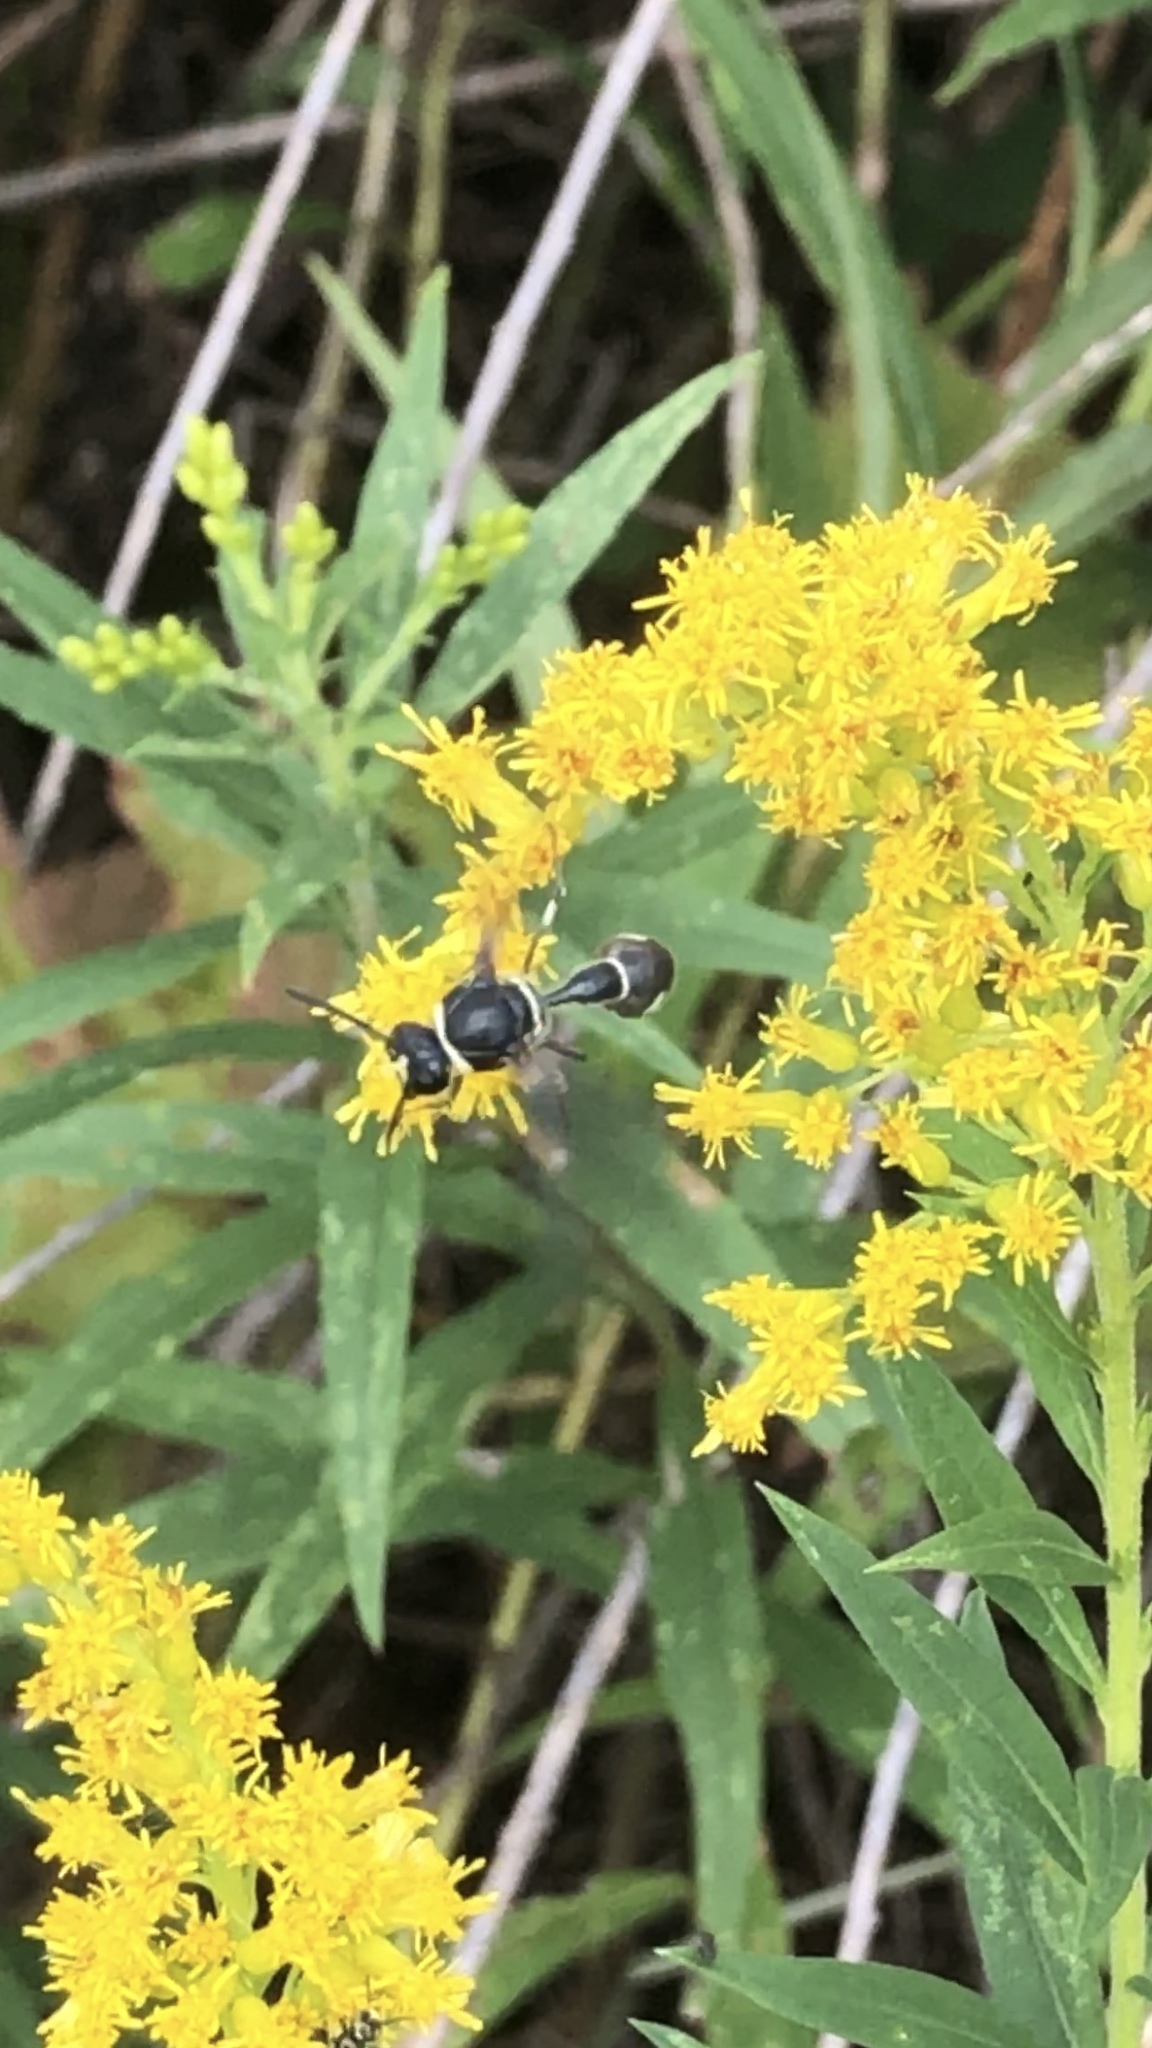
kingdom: Animalia
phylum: Arthropoda
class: Insecta
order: Hymenoptera
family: Vespidae
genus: Eumenes
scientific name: Eumenes fraternus
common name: Fraternal potter wasp
